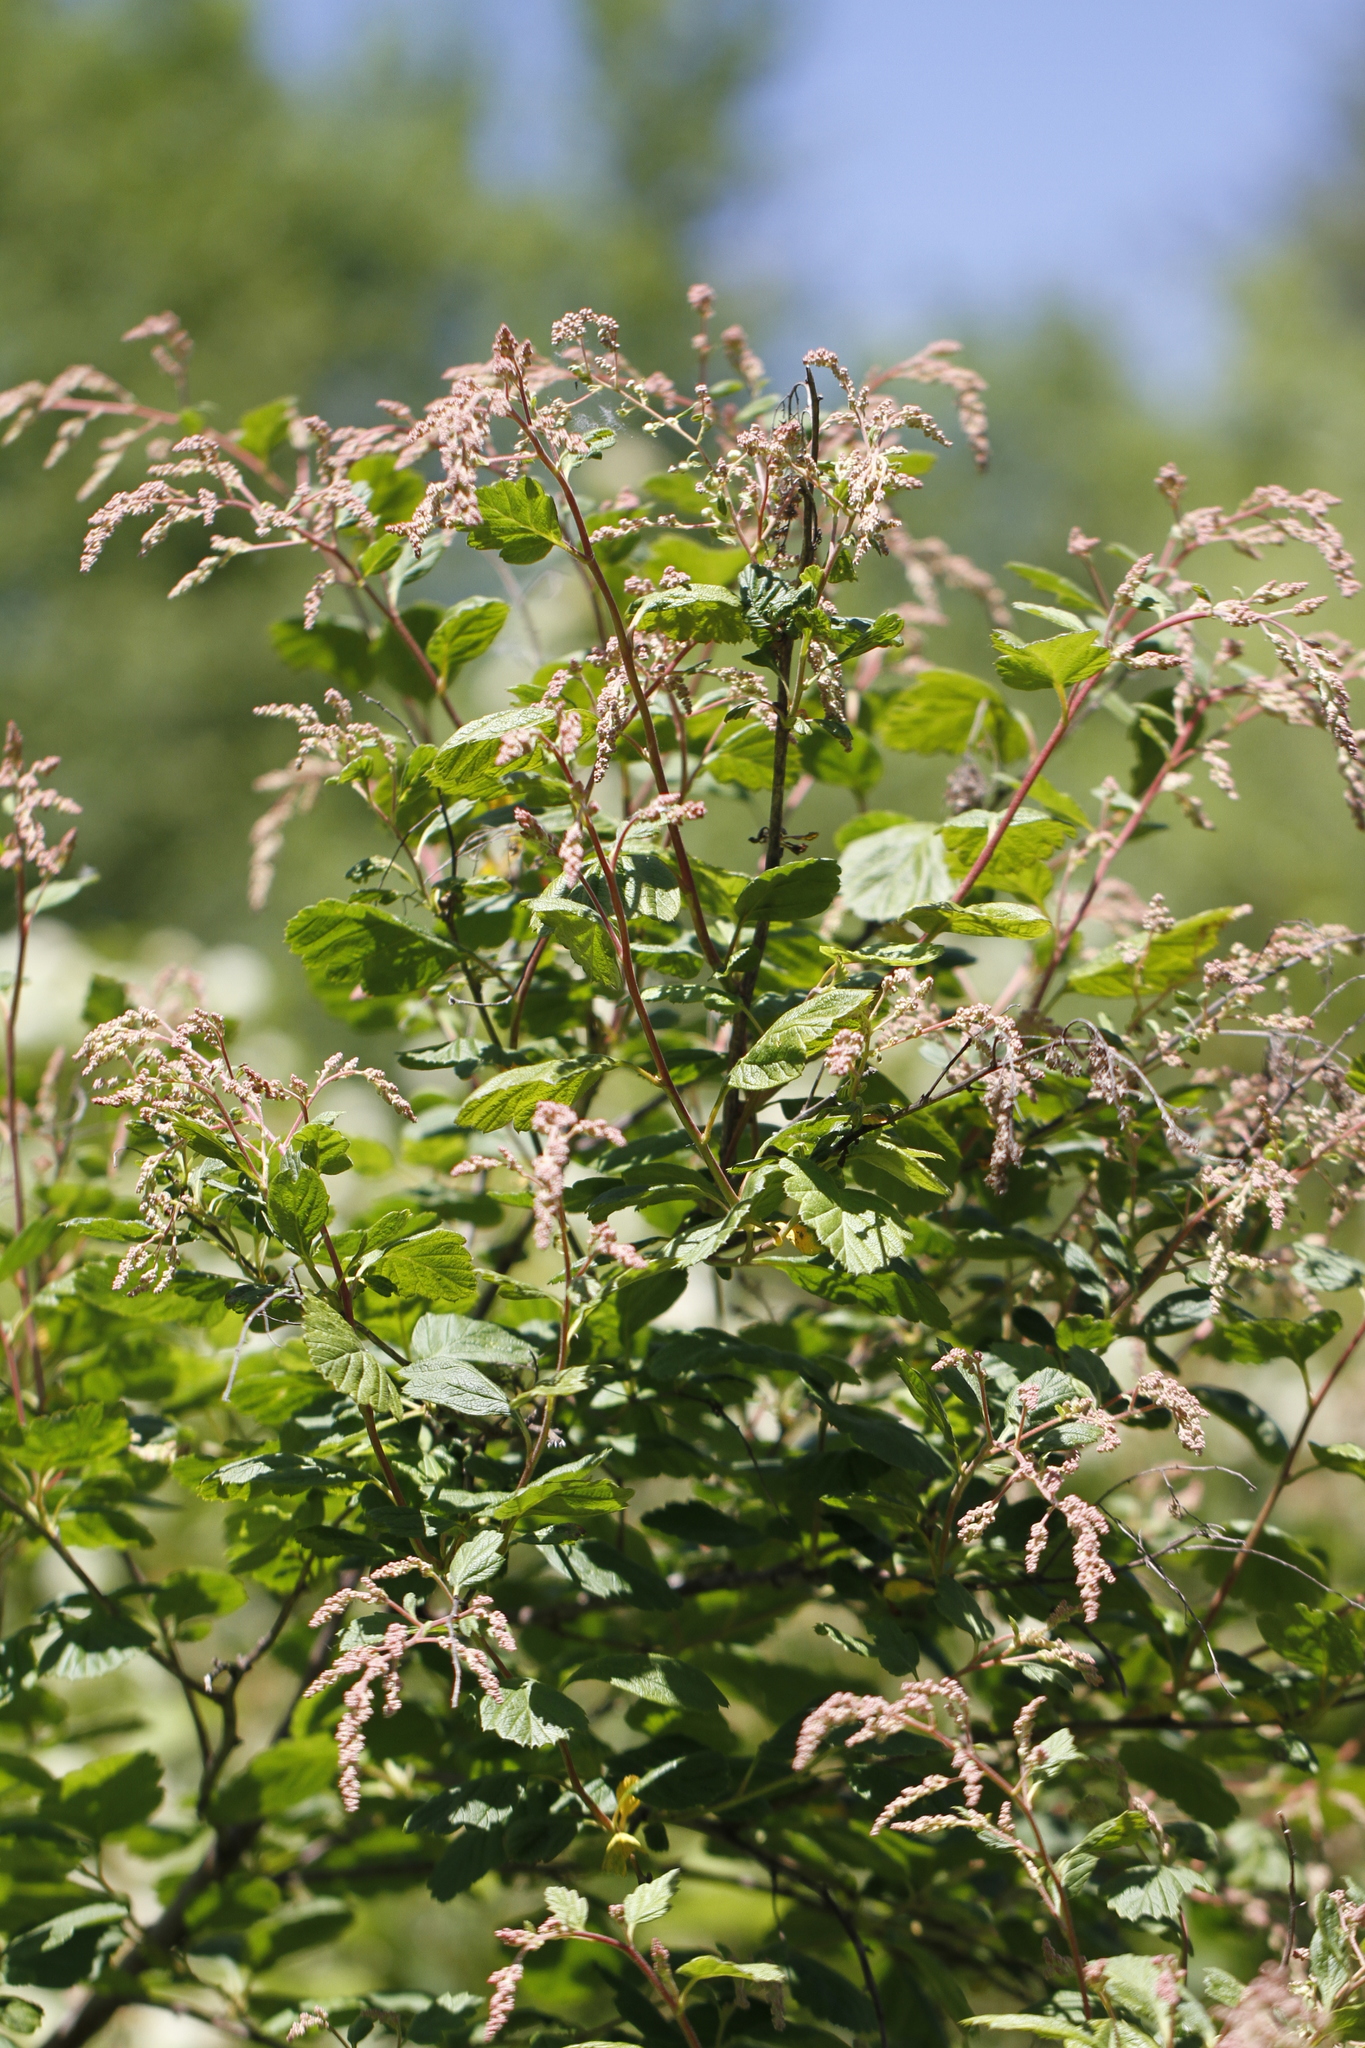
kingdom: Plantae
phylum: Tracheophyta
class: Magnoliopsida
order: Rosales
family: Rosaceae
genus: Holodiscus
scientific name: Holodiscus discolor
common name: Oceanspray
